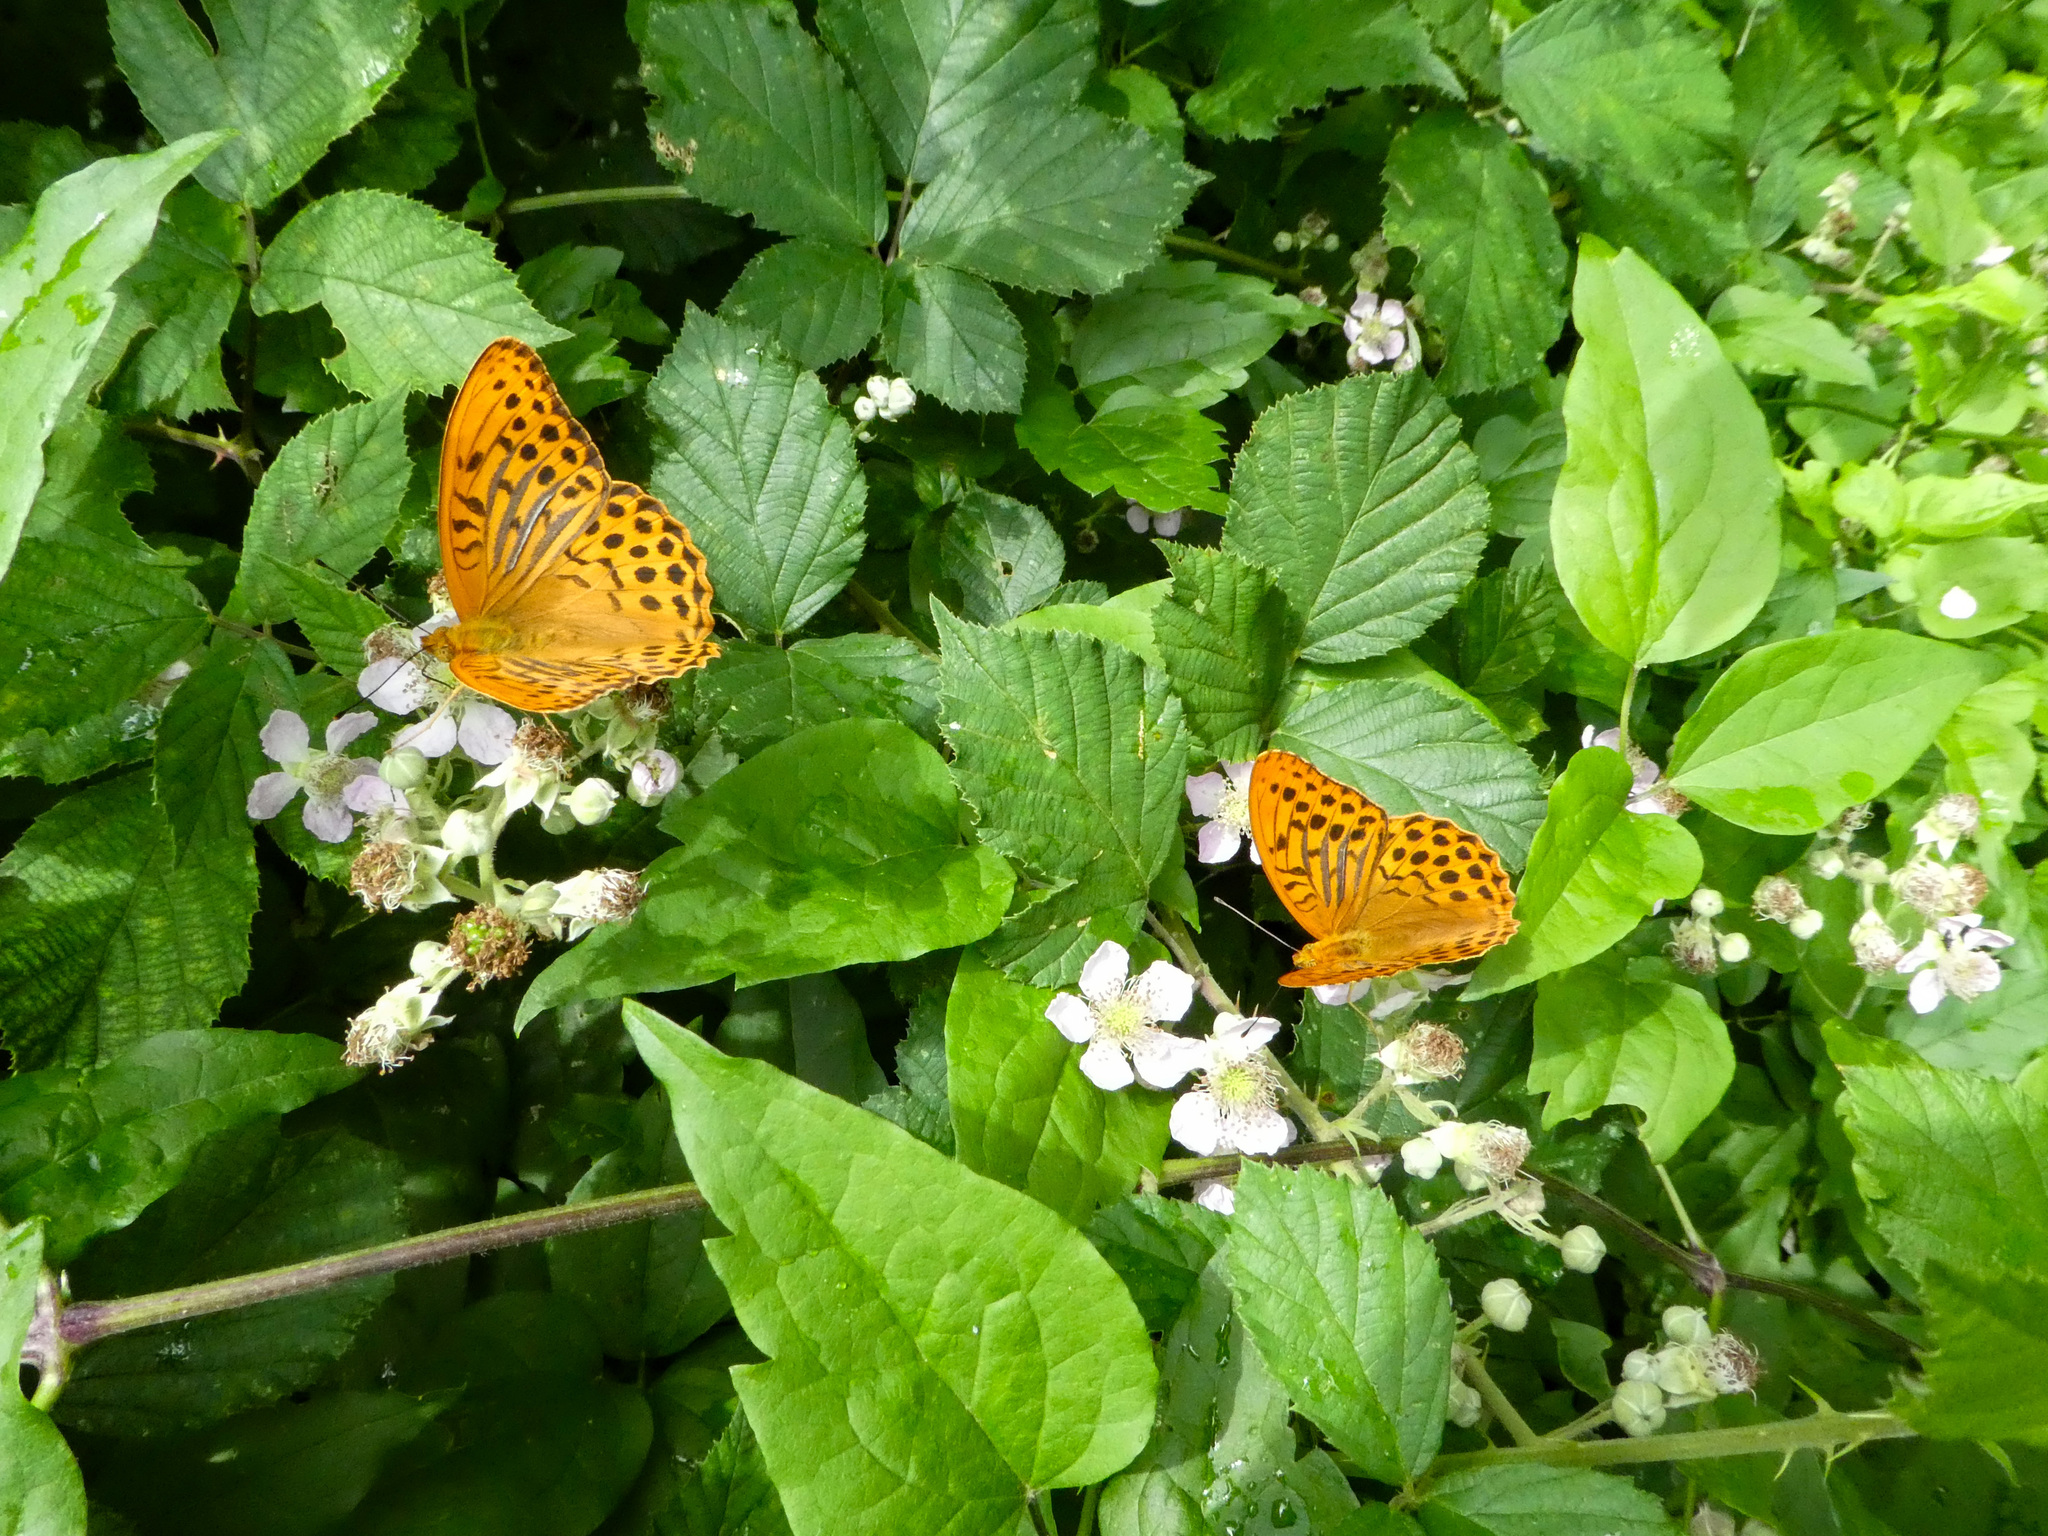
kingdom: Animalia
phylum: Arthropoda
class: Insecta
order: Lepidoptera
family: Nymphalidae
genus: Argynnis
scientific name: Argynnis paphia
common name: Silver-washed fritillary
